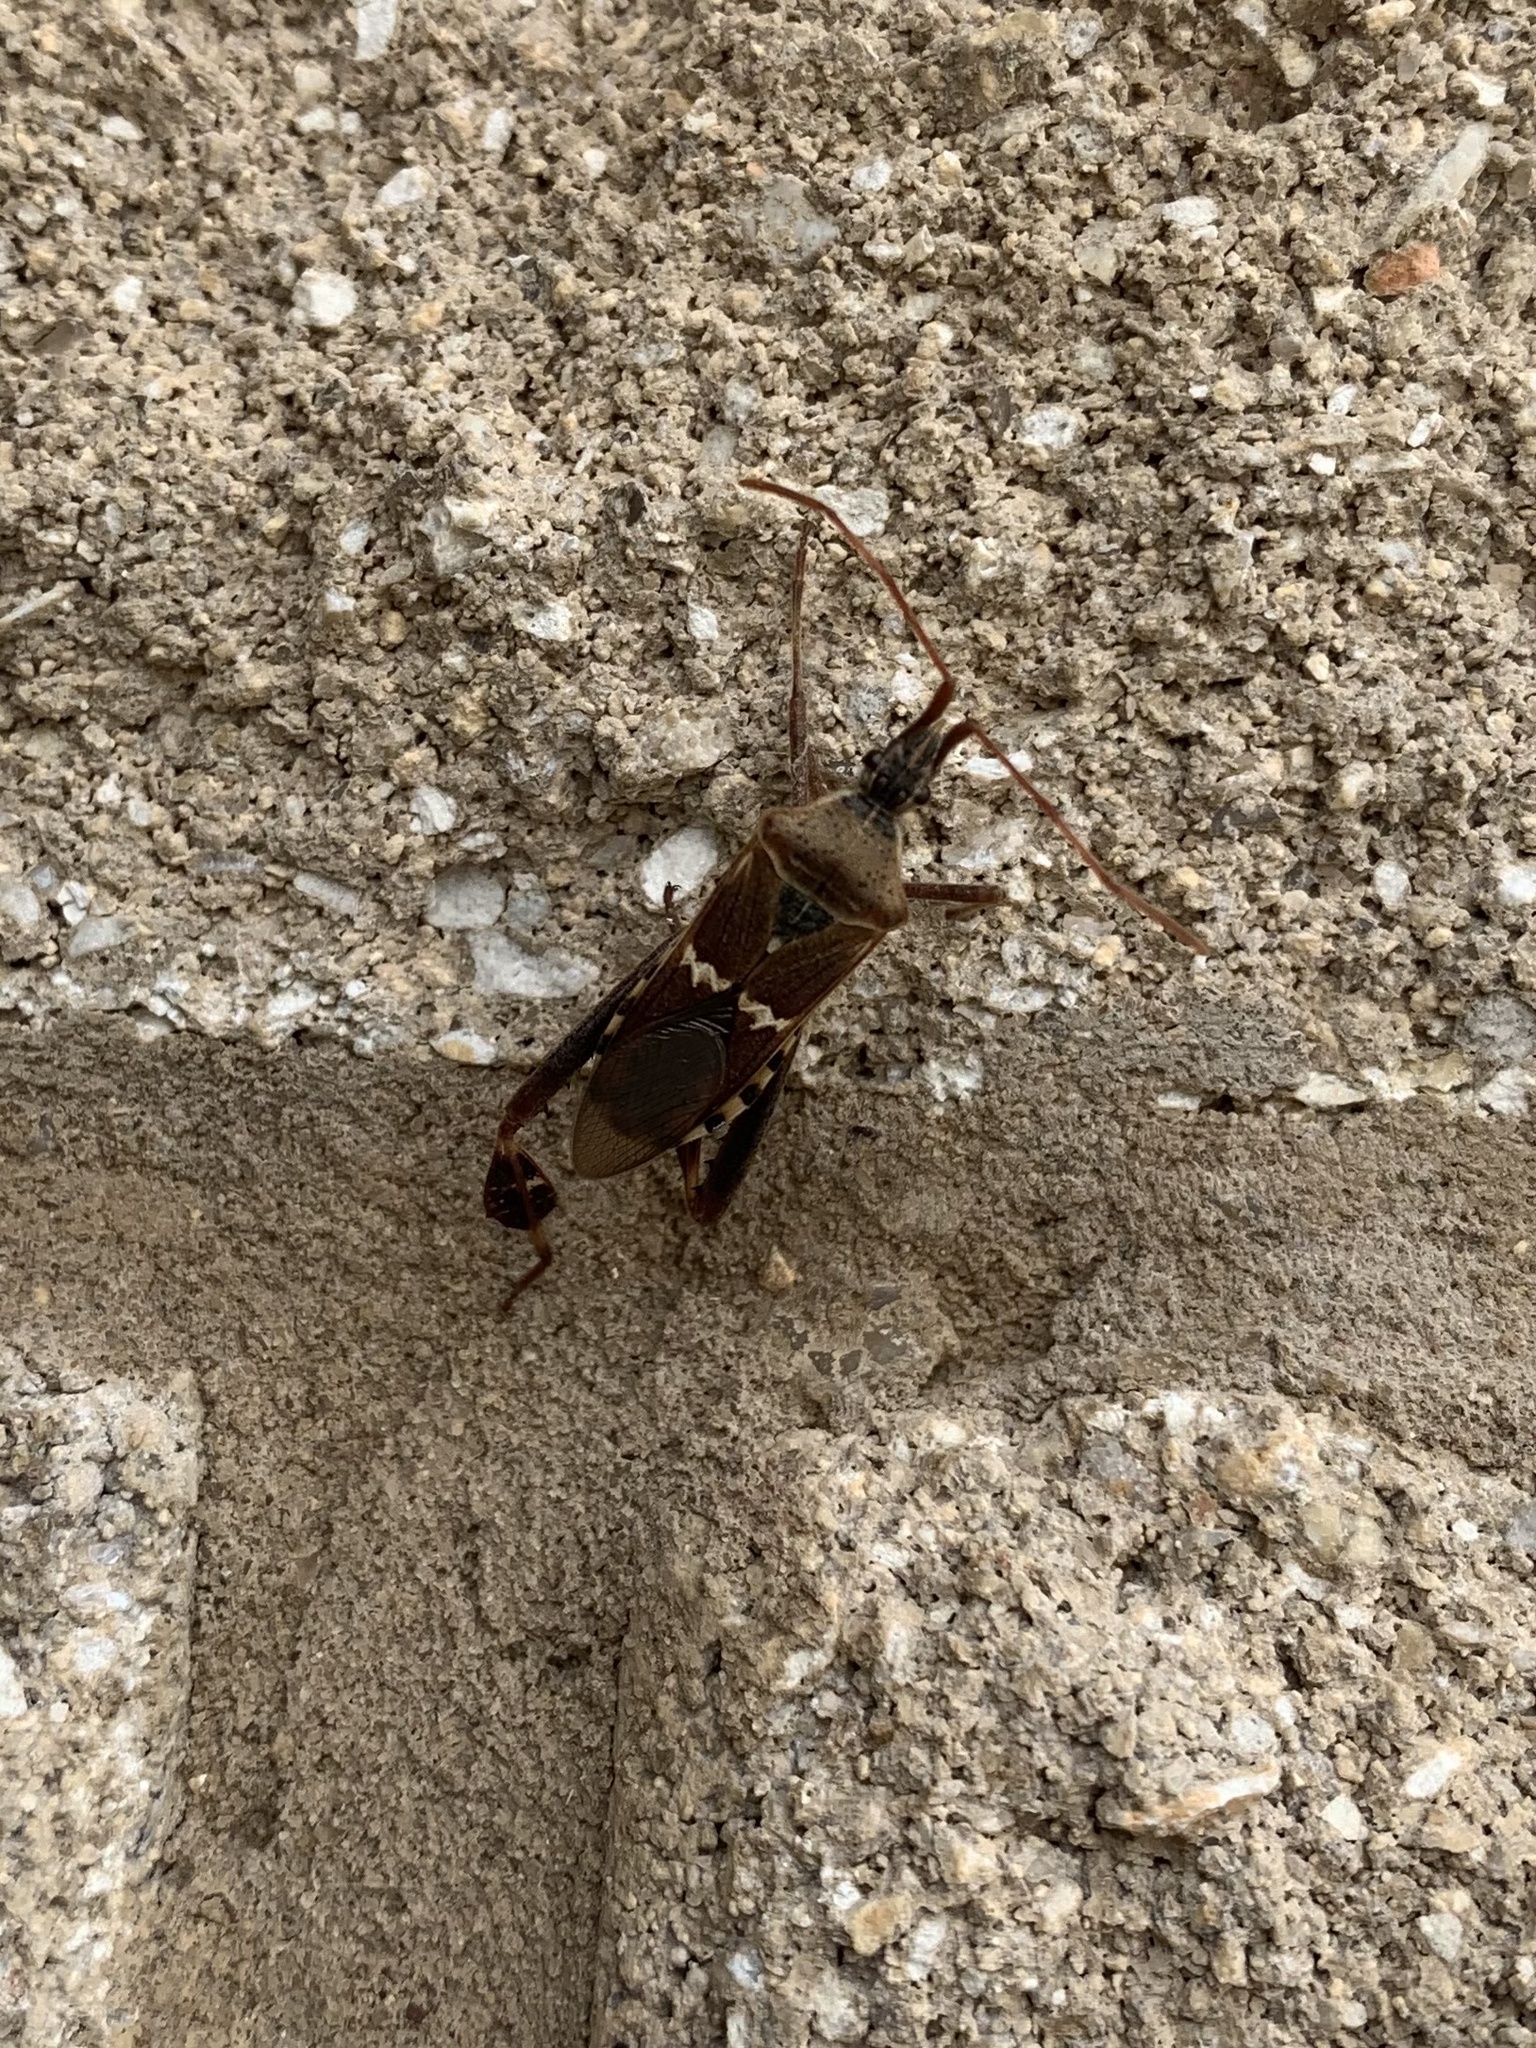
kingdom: Animalia
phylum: Arthropoda
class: Insecta
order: Hemiptera
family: Coreidae
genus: Leptoglossus
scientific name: Leptoglossus clypealis
